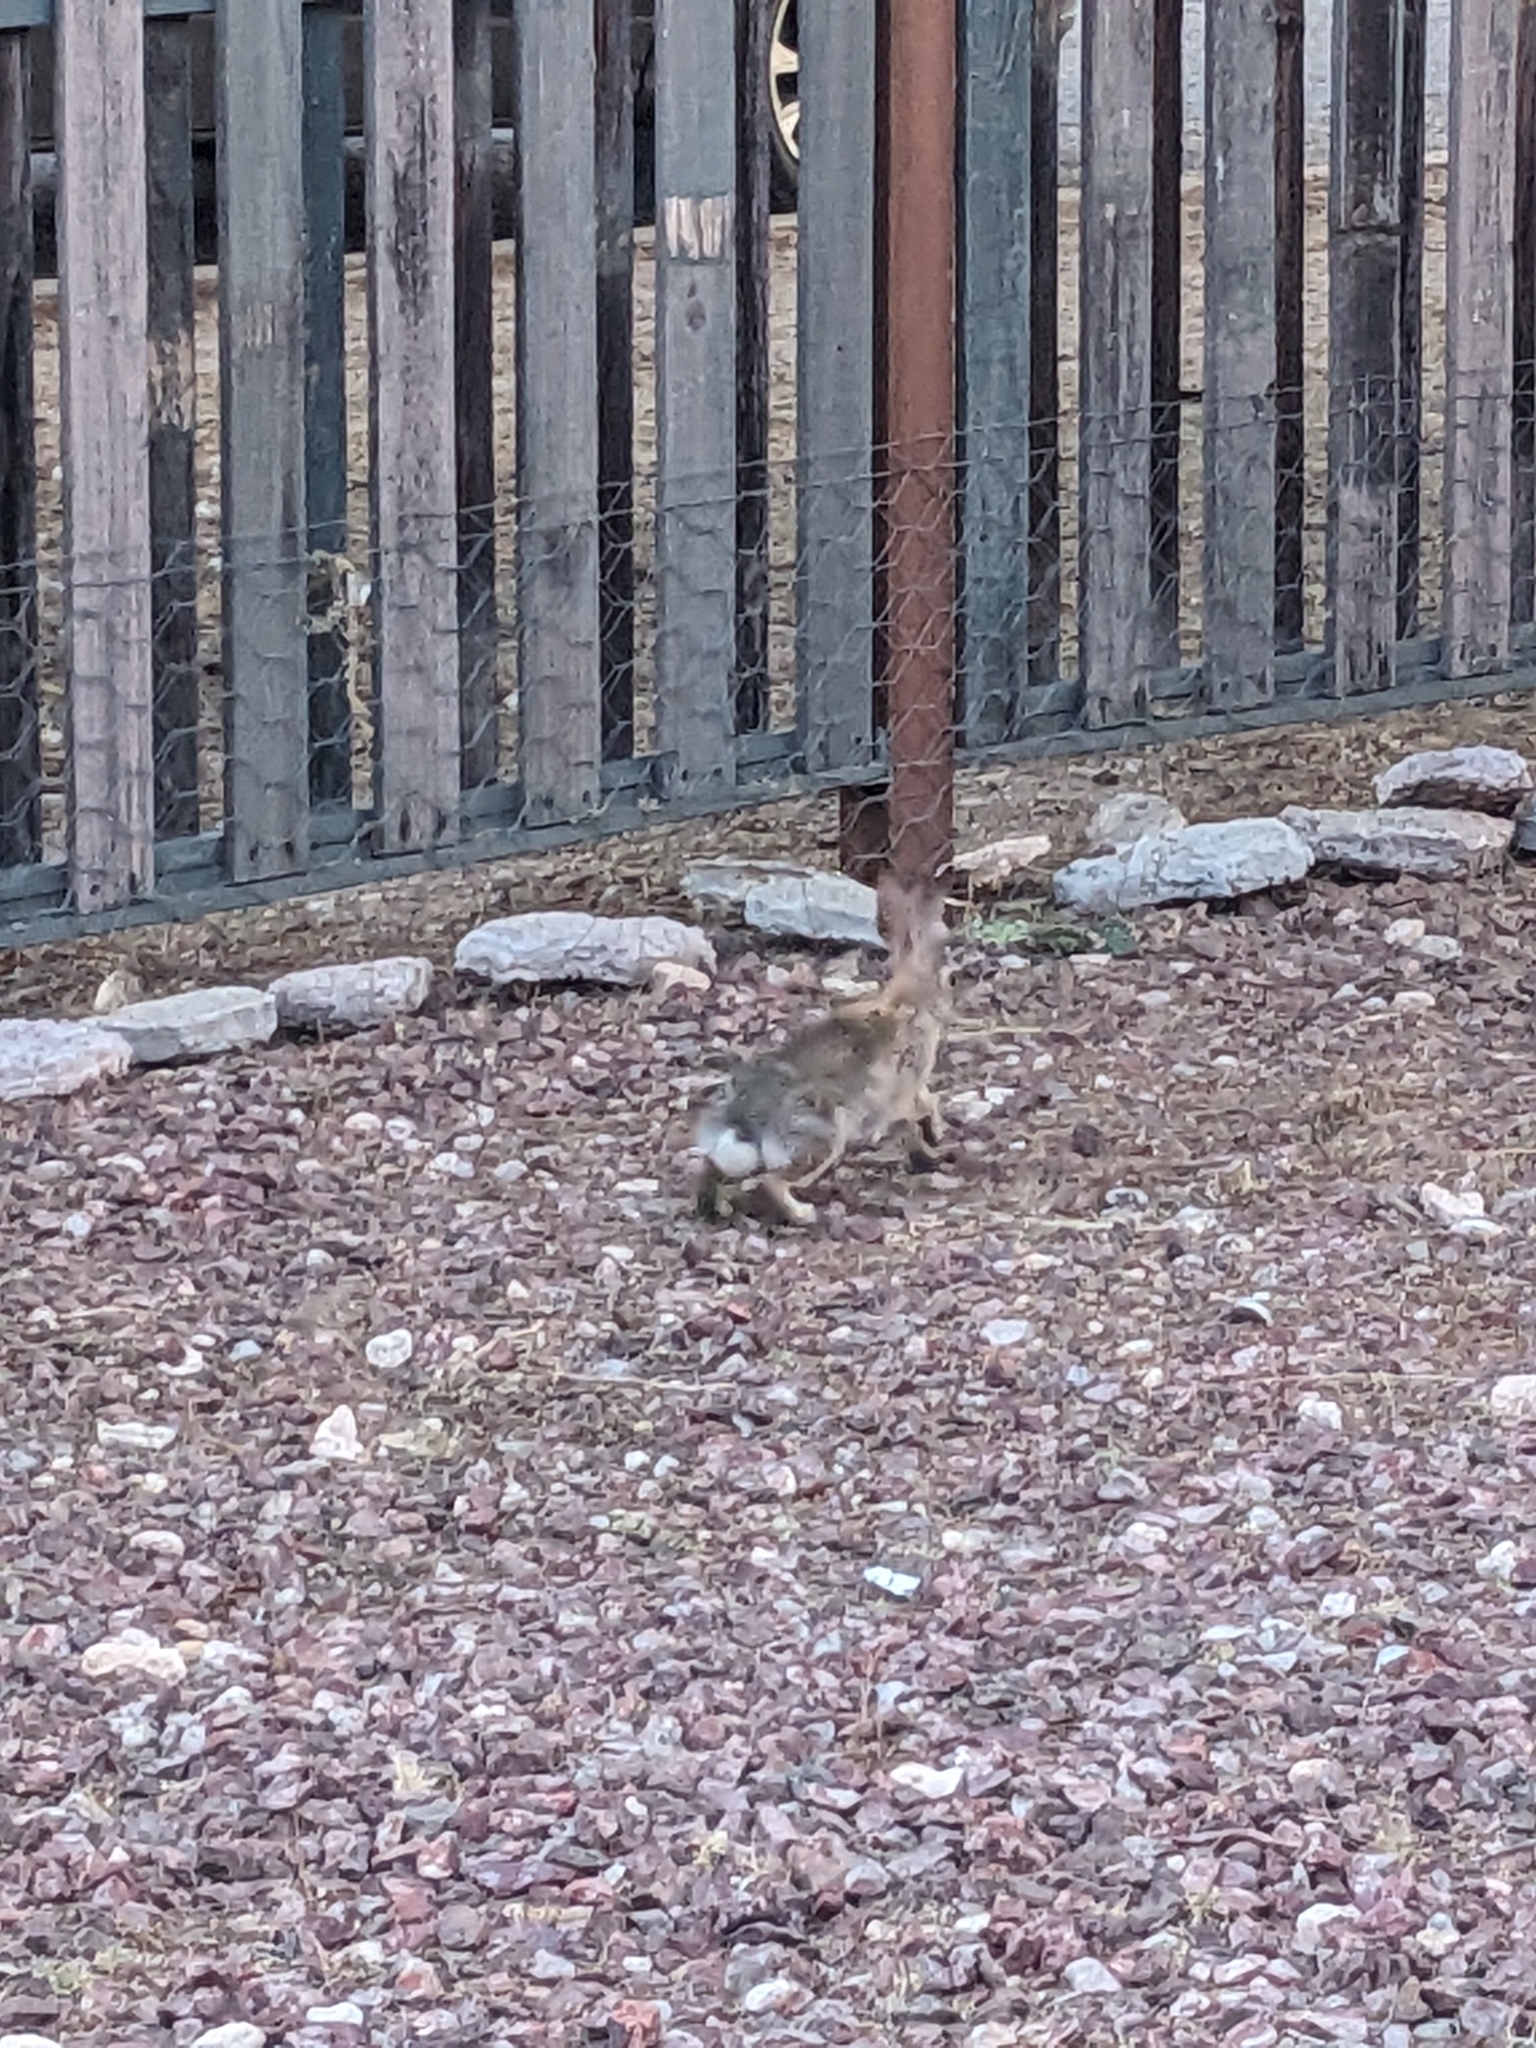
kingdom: Animalia
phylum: Chordata
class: Mammalia
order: Lagomorpha
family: Leporidae
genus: Sylvilagus
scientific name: Sylvilagus audubonii
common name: Desert cottontail
